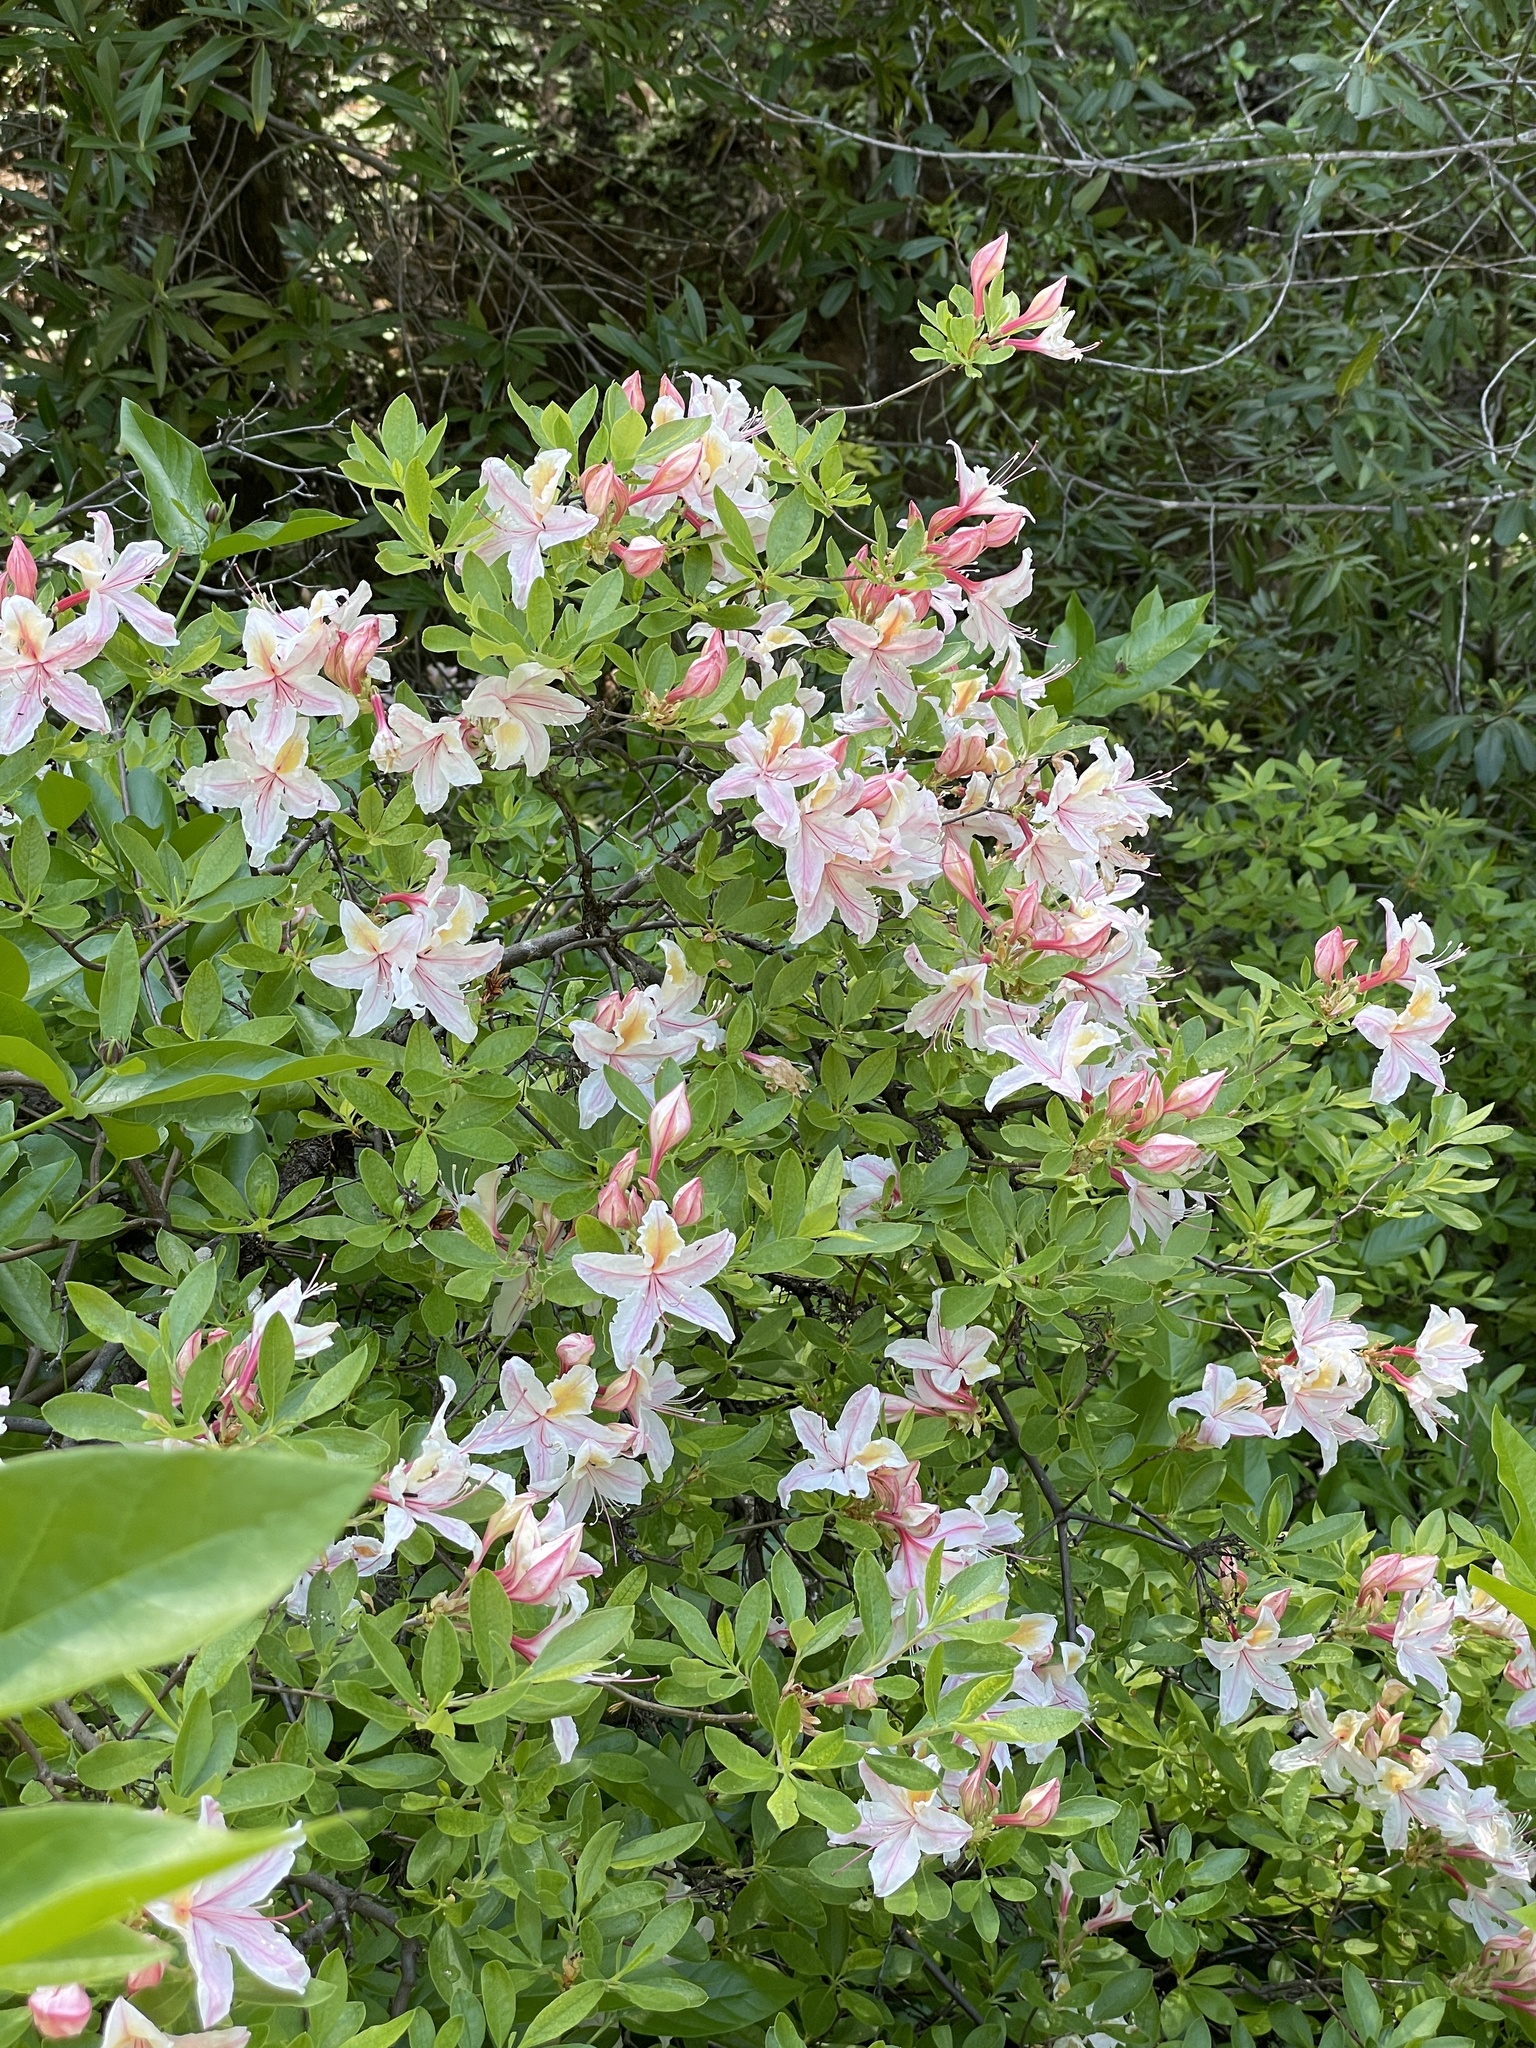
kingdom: Plantae
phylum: Tracheophyta
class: Magnoliopsida
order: Ericales
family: Ericaceae
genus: Rhododendron
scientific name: Rhododendron occidentale
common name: Western azalea
